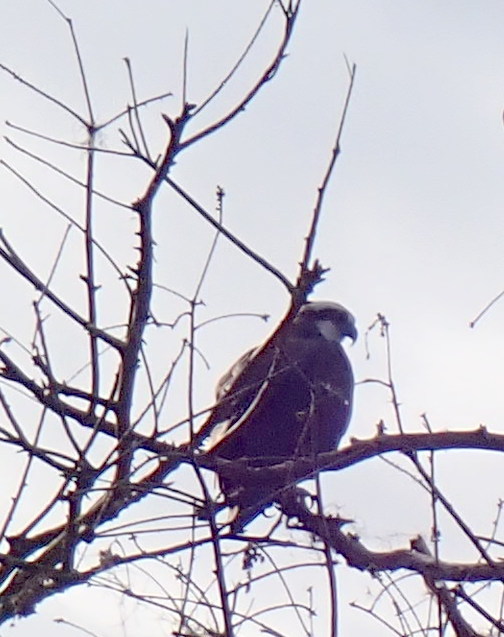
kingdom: Animalia
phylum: Chordata
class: Aves
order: Accipitriformes
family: Pandionidae
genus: Pandion
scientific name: Pandion haliaetus
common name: Osprey
